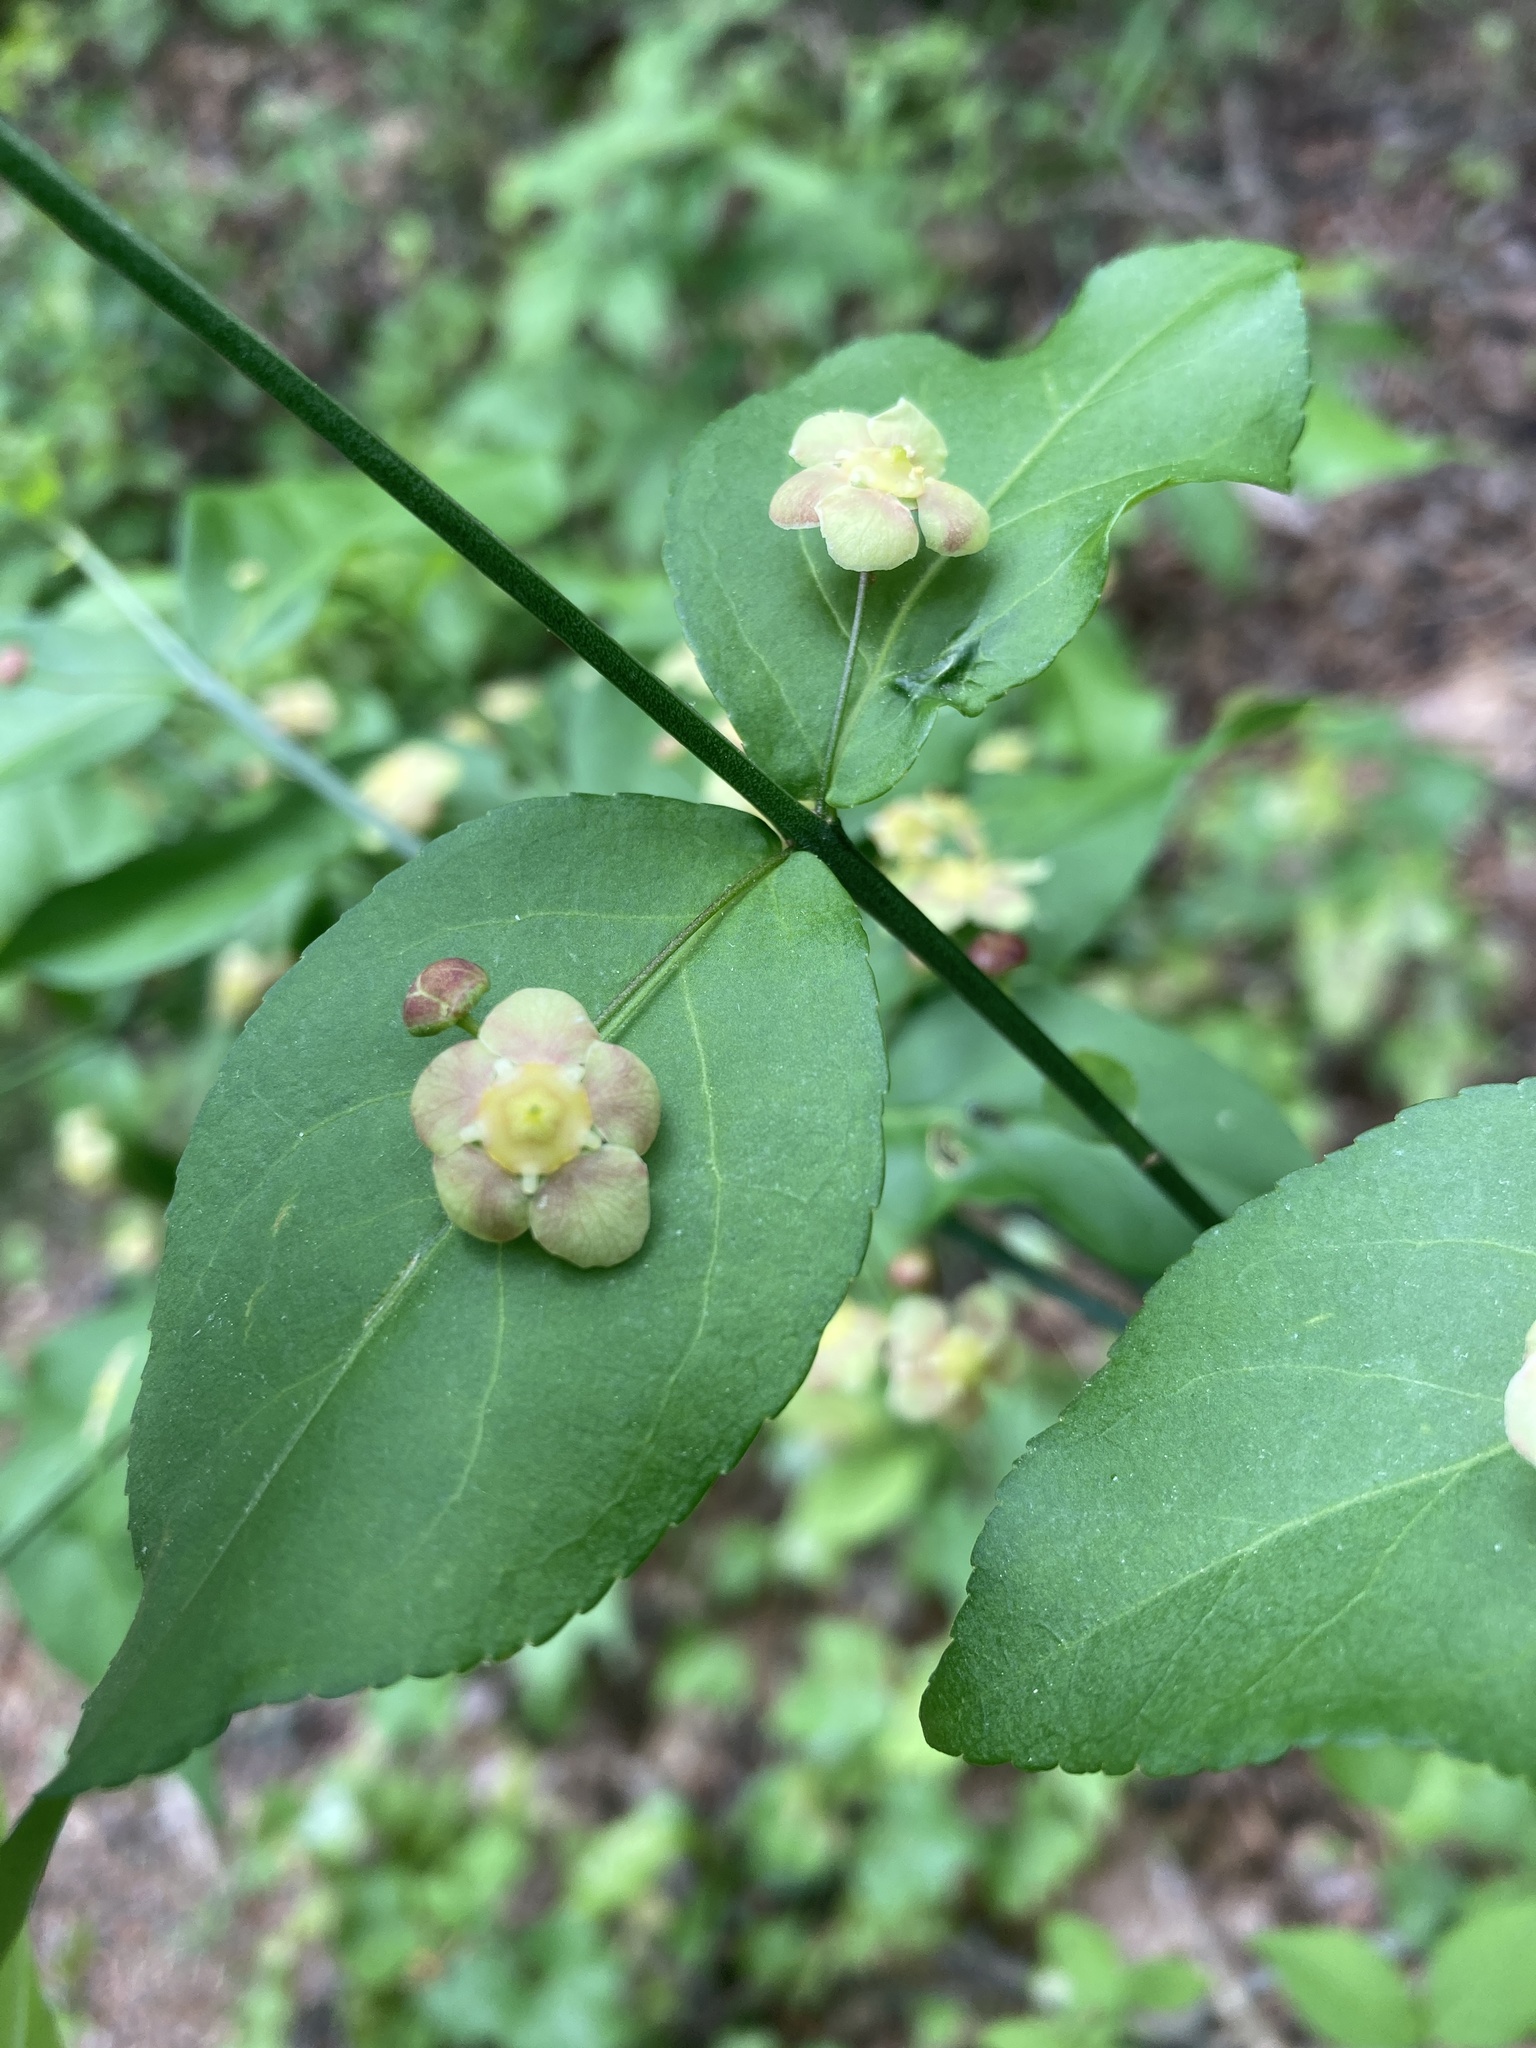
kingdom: Plantae
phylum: Tracheophyta
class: Magnoliopsida
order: Celastrales
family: Celastraceae
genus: Euonymus
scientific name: Euonymus americanus
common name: Bursting-heart
